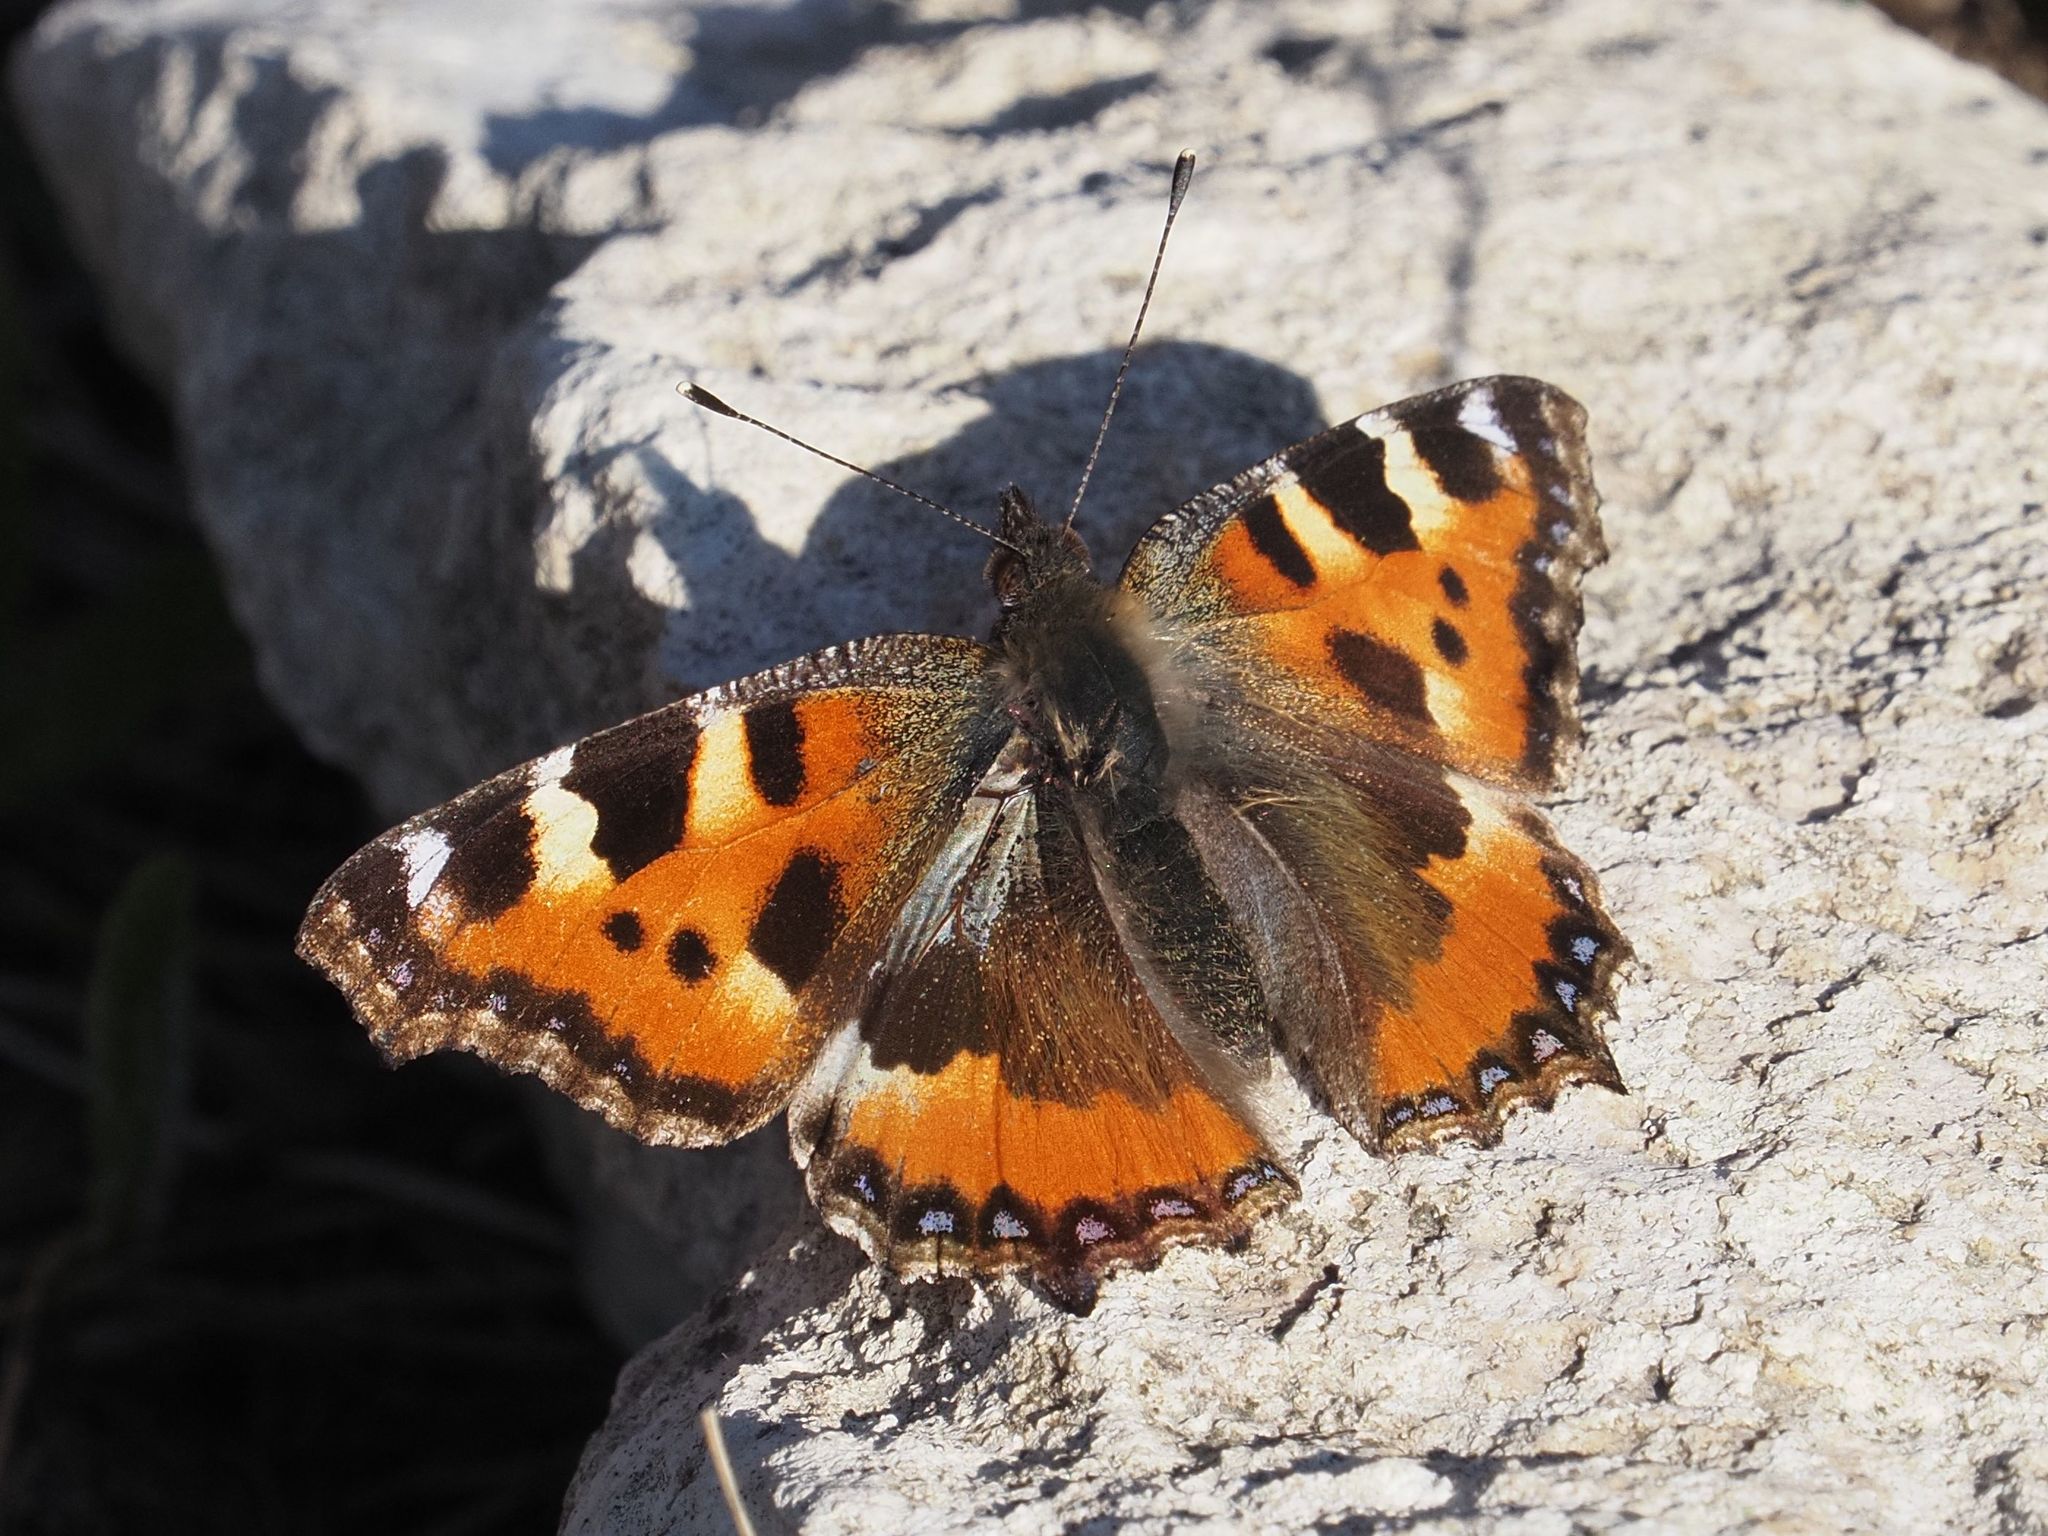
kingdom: Animalia
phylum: Arthropoda
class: Insecta
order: Lepidoptera
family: Nymphalidae
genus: Aglais
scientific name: Aglais urticae
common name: Small tortoiseshell
